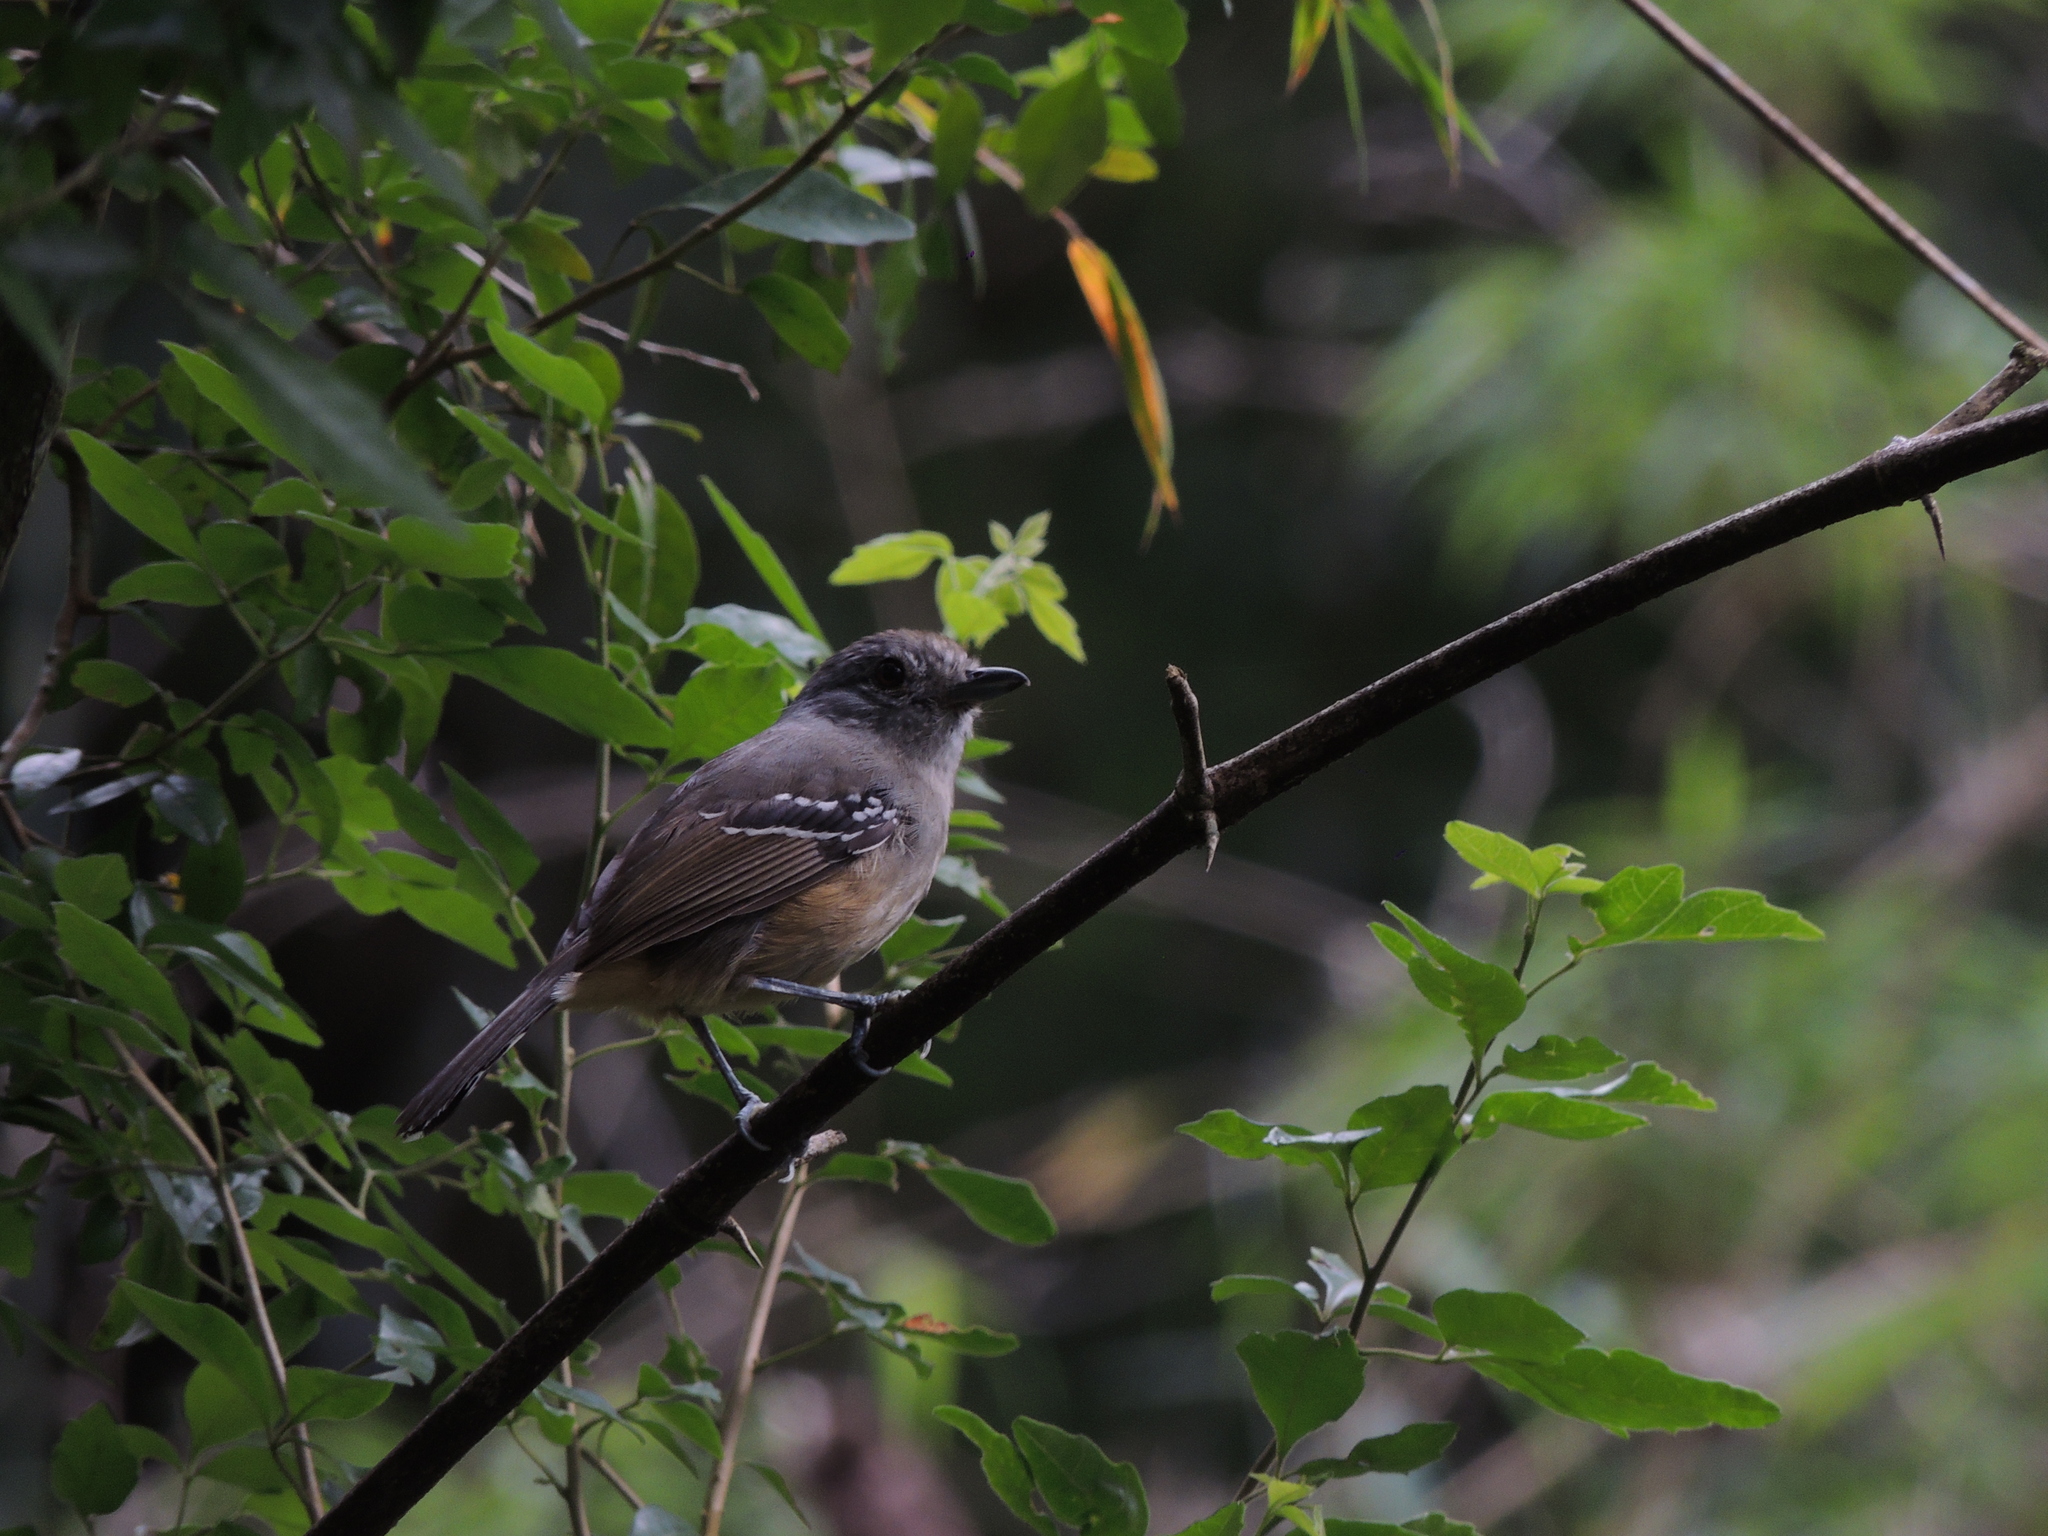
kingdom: Animalia
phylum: Chordata
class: Aves
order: Passeriformes
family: Thamnophilidae
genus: Thamnophilus
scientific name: Thamnophilus caerulescens
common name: Variable antshrike
